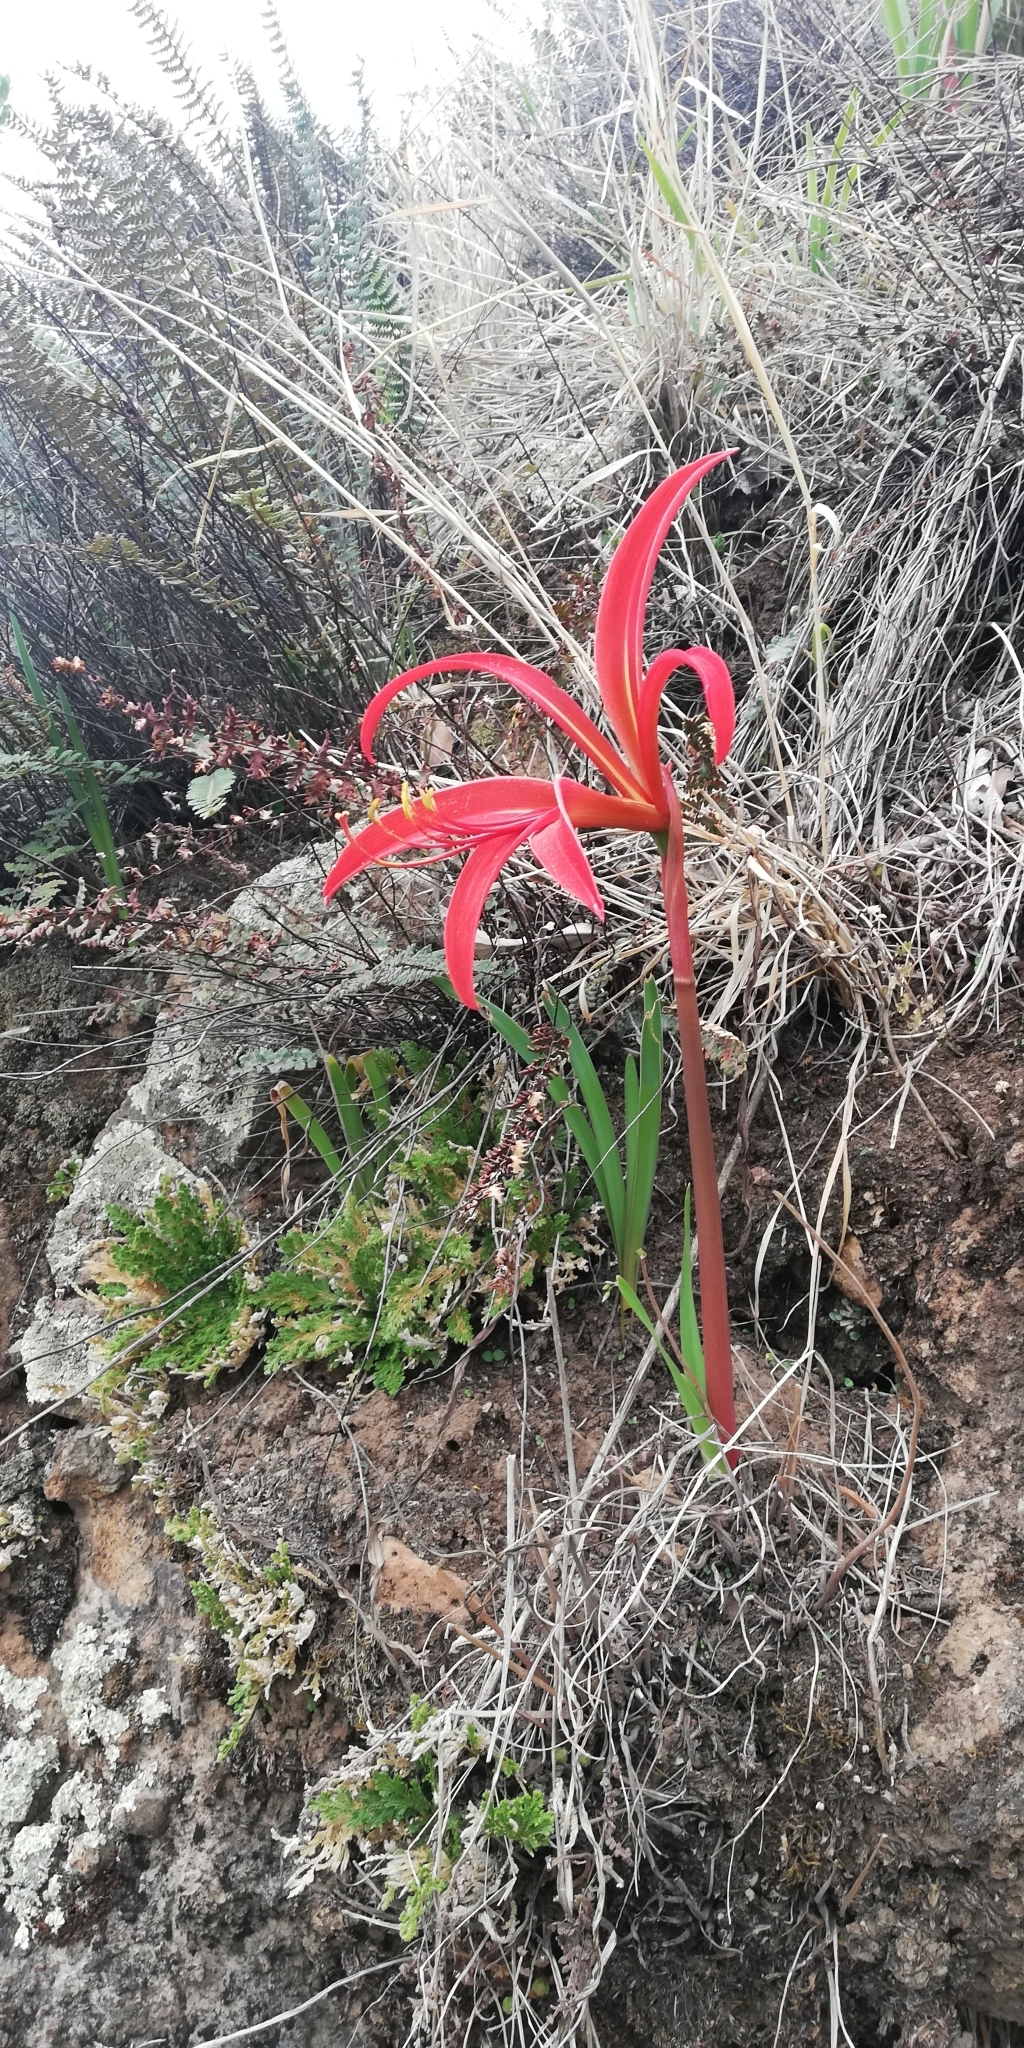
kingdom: Plantae
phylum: Tracheophyta
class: Liliopsida
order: Asparagales
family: Amaryllidaceae
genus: Sprekelia
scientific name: Sprekelia formosissima
